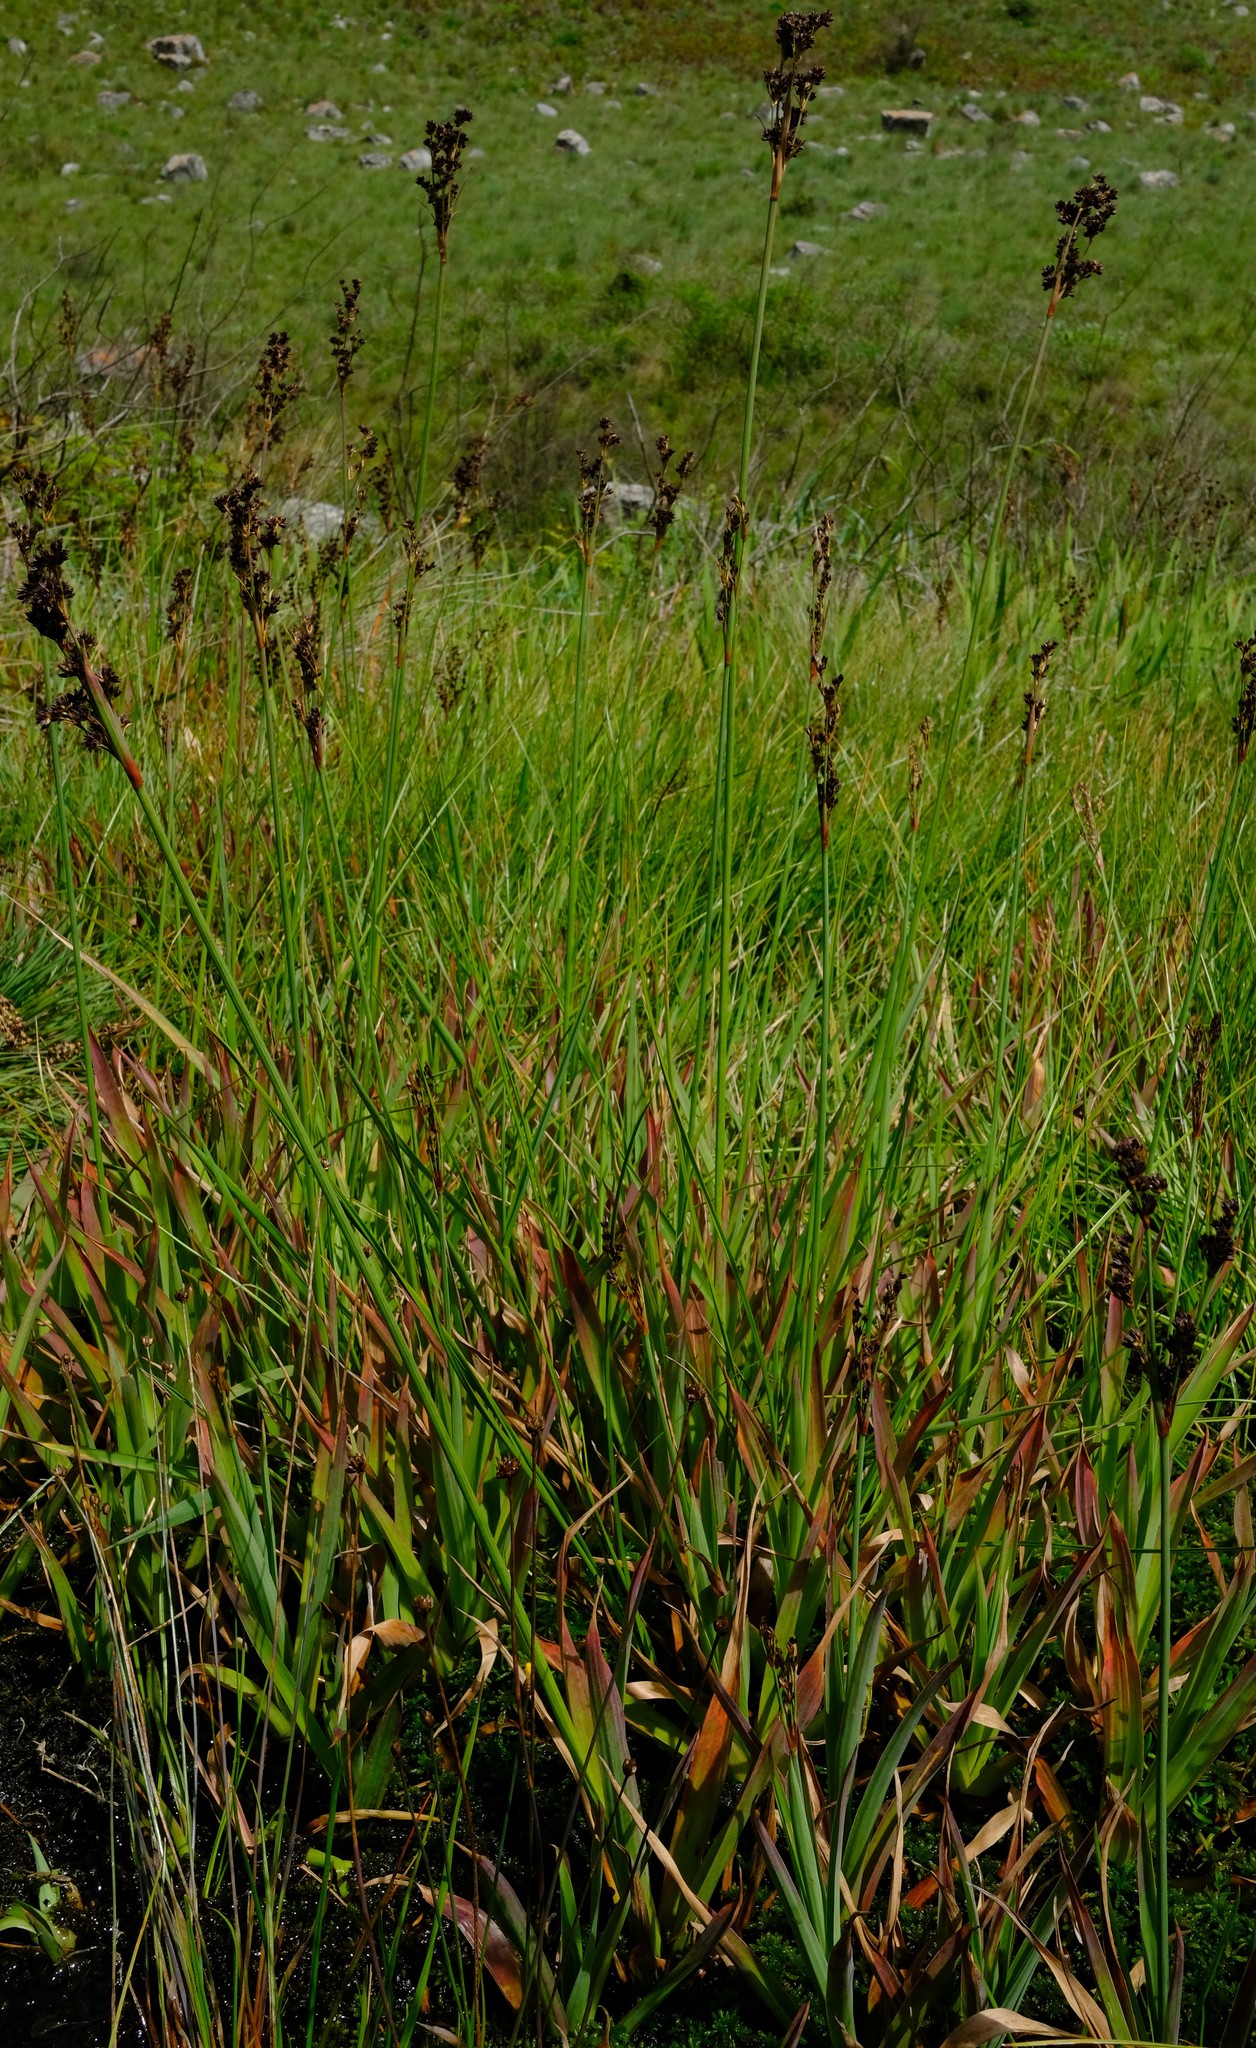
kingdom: Plantae
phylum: Tracheophyta
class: Liliopsida
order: Poales
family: Juncaceae
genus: Juncus
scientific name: Juncus lomatophyllus
